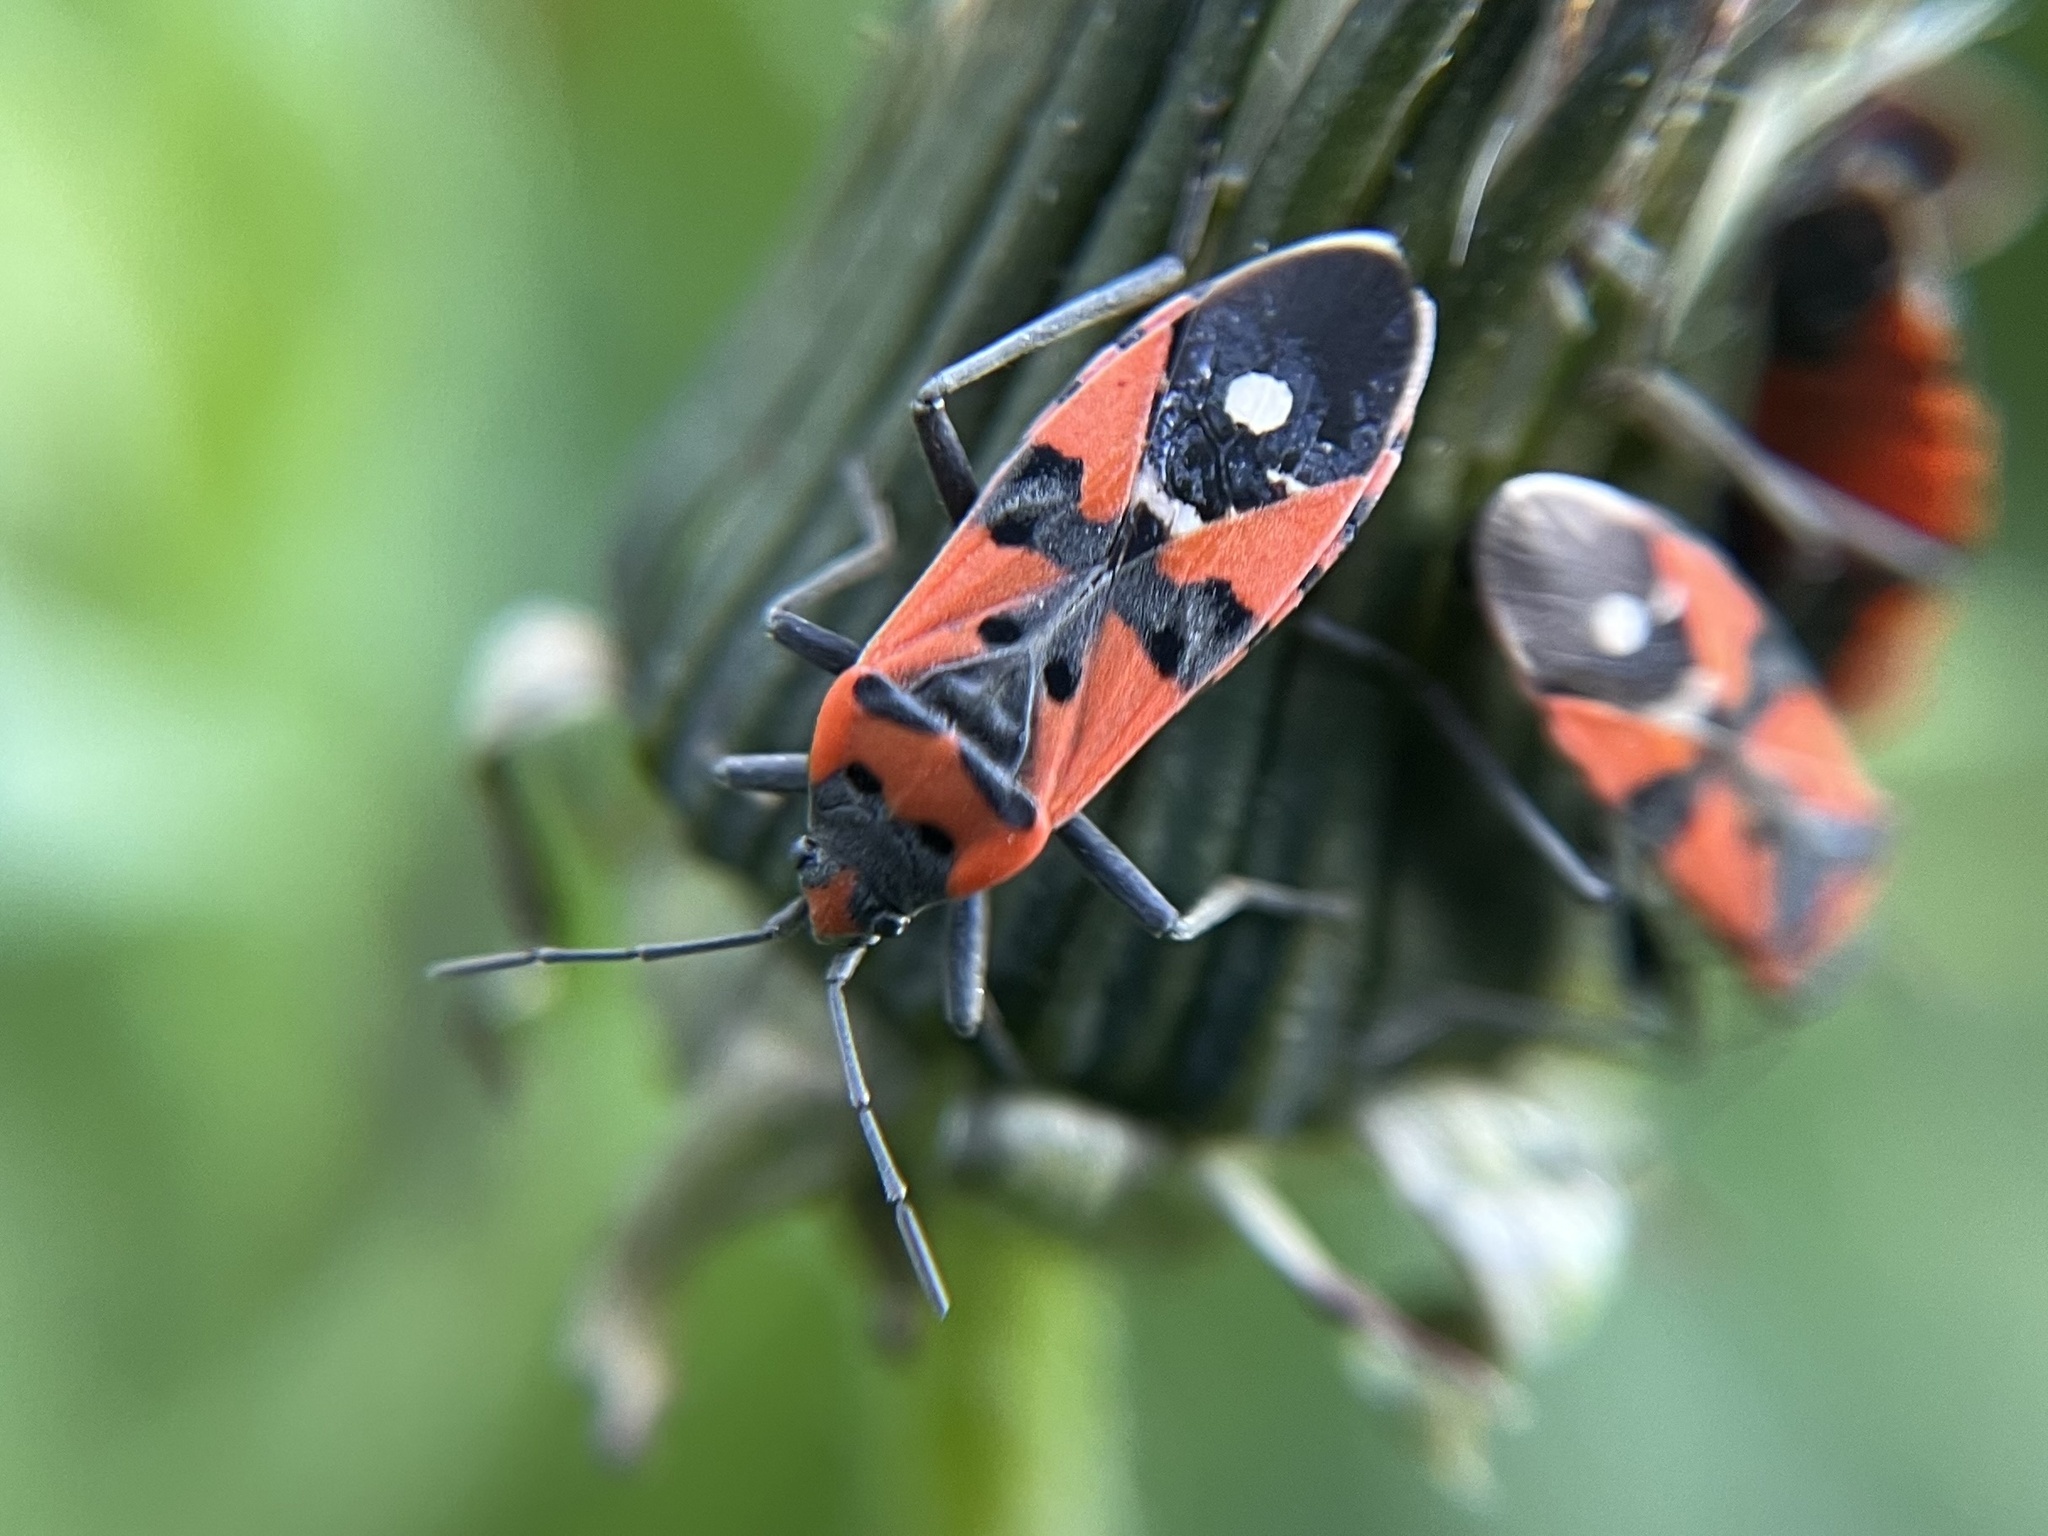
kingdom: Animalia
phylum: Arthropoda
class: Insecta
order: Hemiptera
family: Lygaeidae
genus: Lygaeus
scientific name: Lygaeus equestris
